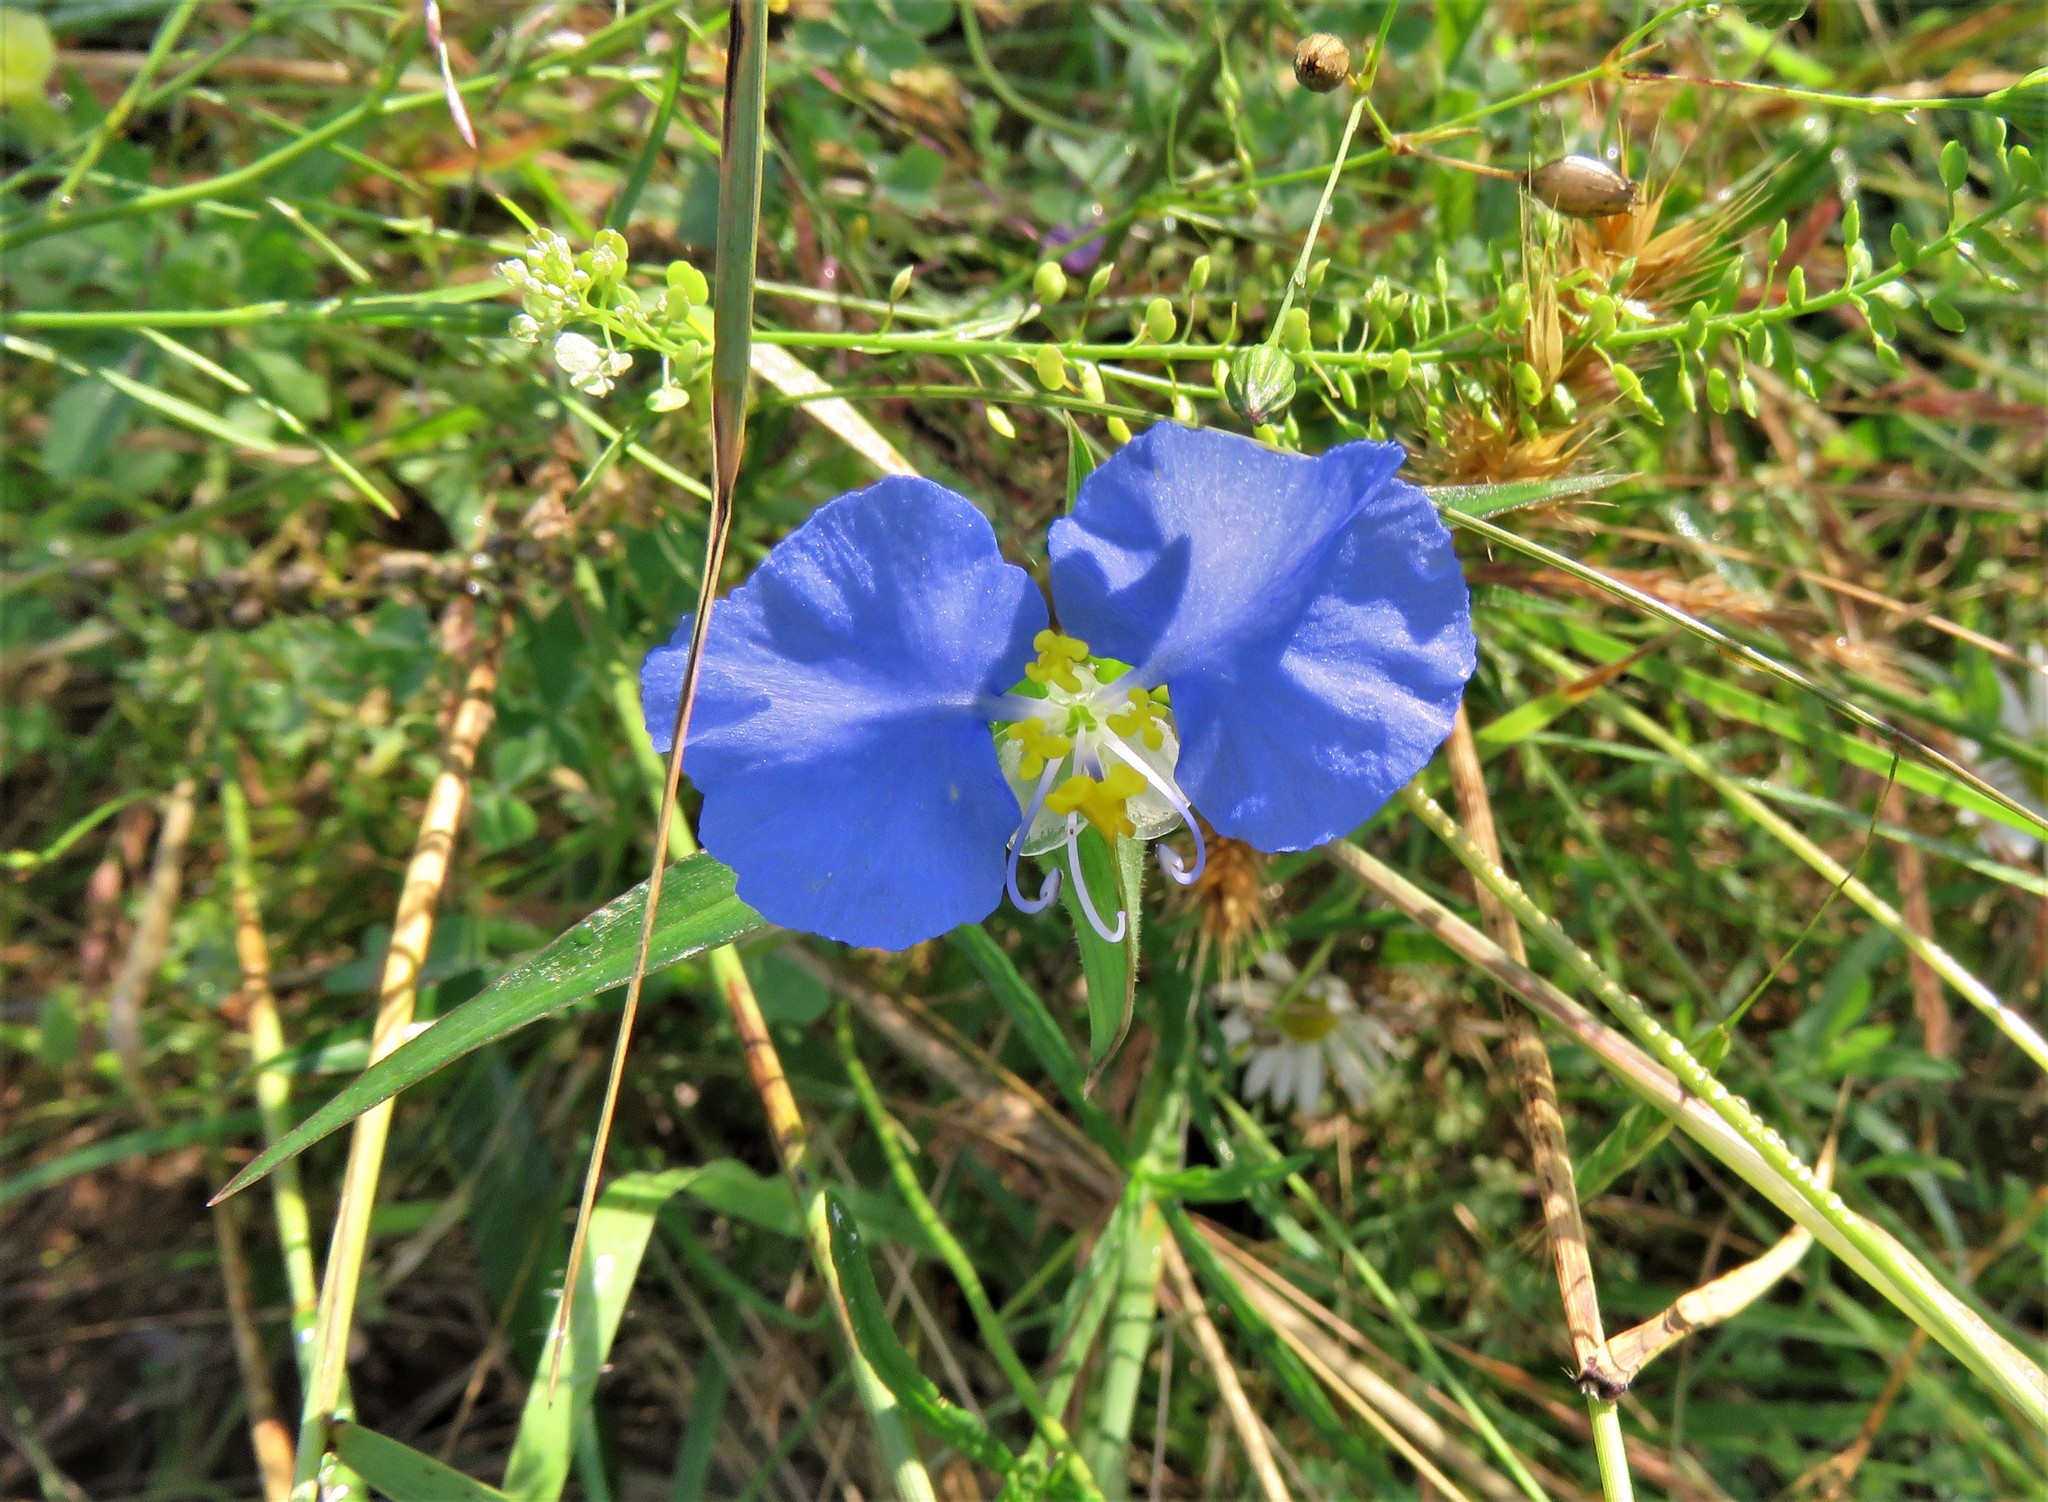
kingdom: Plantae
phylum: Tracheophyta
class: Liliopsida
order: Commelinales
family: Commelinaceae
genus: Commelina
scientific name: Commelina erecta
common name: Blousel blommetjie
